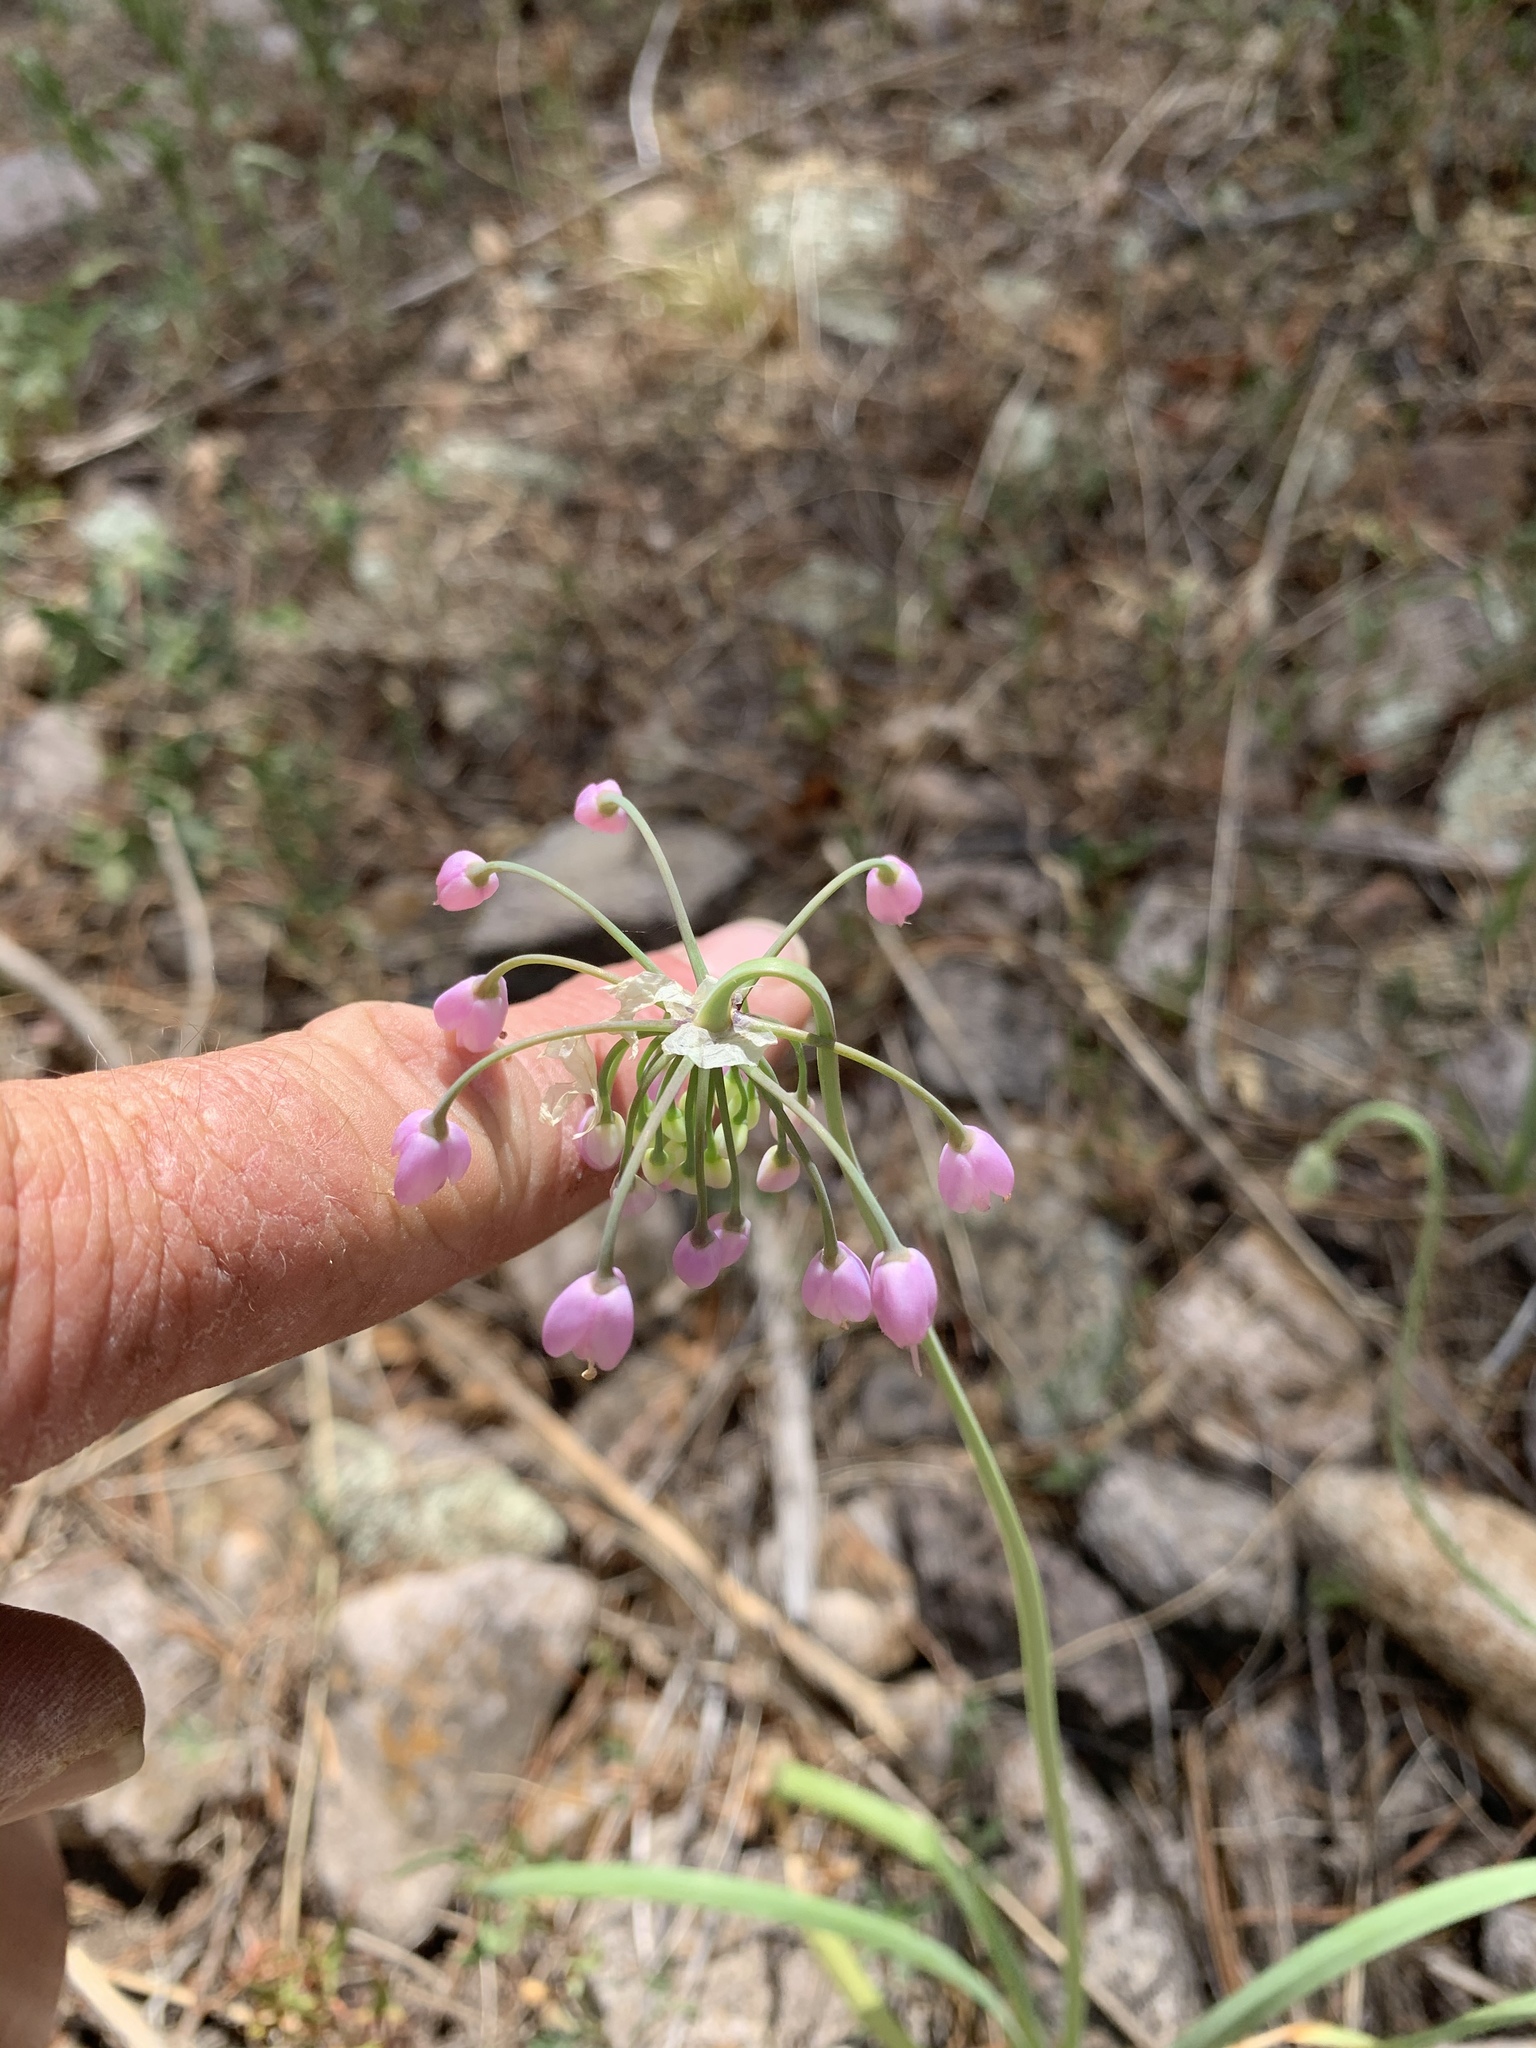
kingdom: Plantae
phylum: Tracheophyta
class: Liliopsida
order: Asparagales
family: Amaryllidaceae
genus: Allium
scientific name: Allium cernuum
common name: Nodding onion
